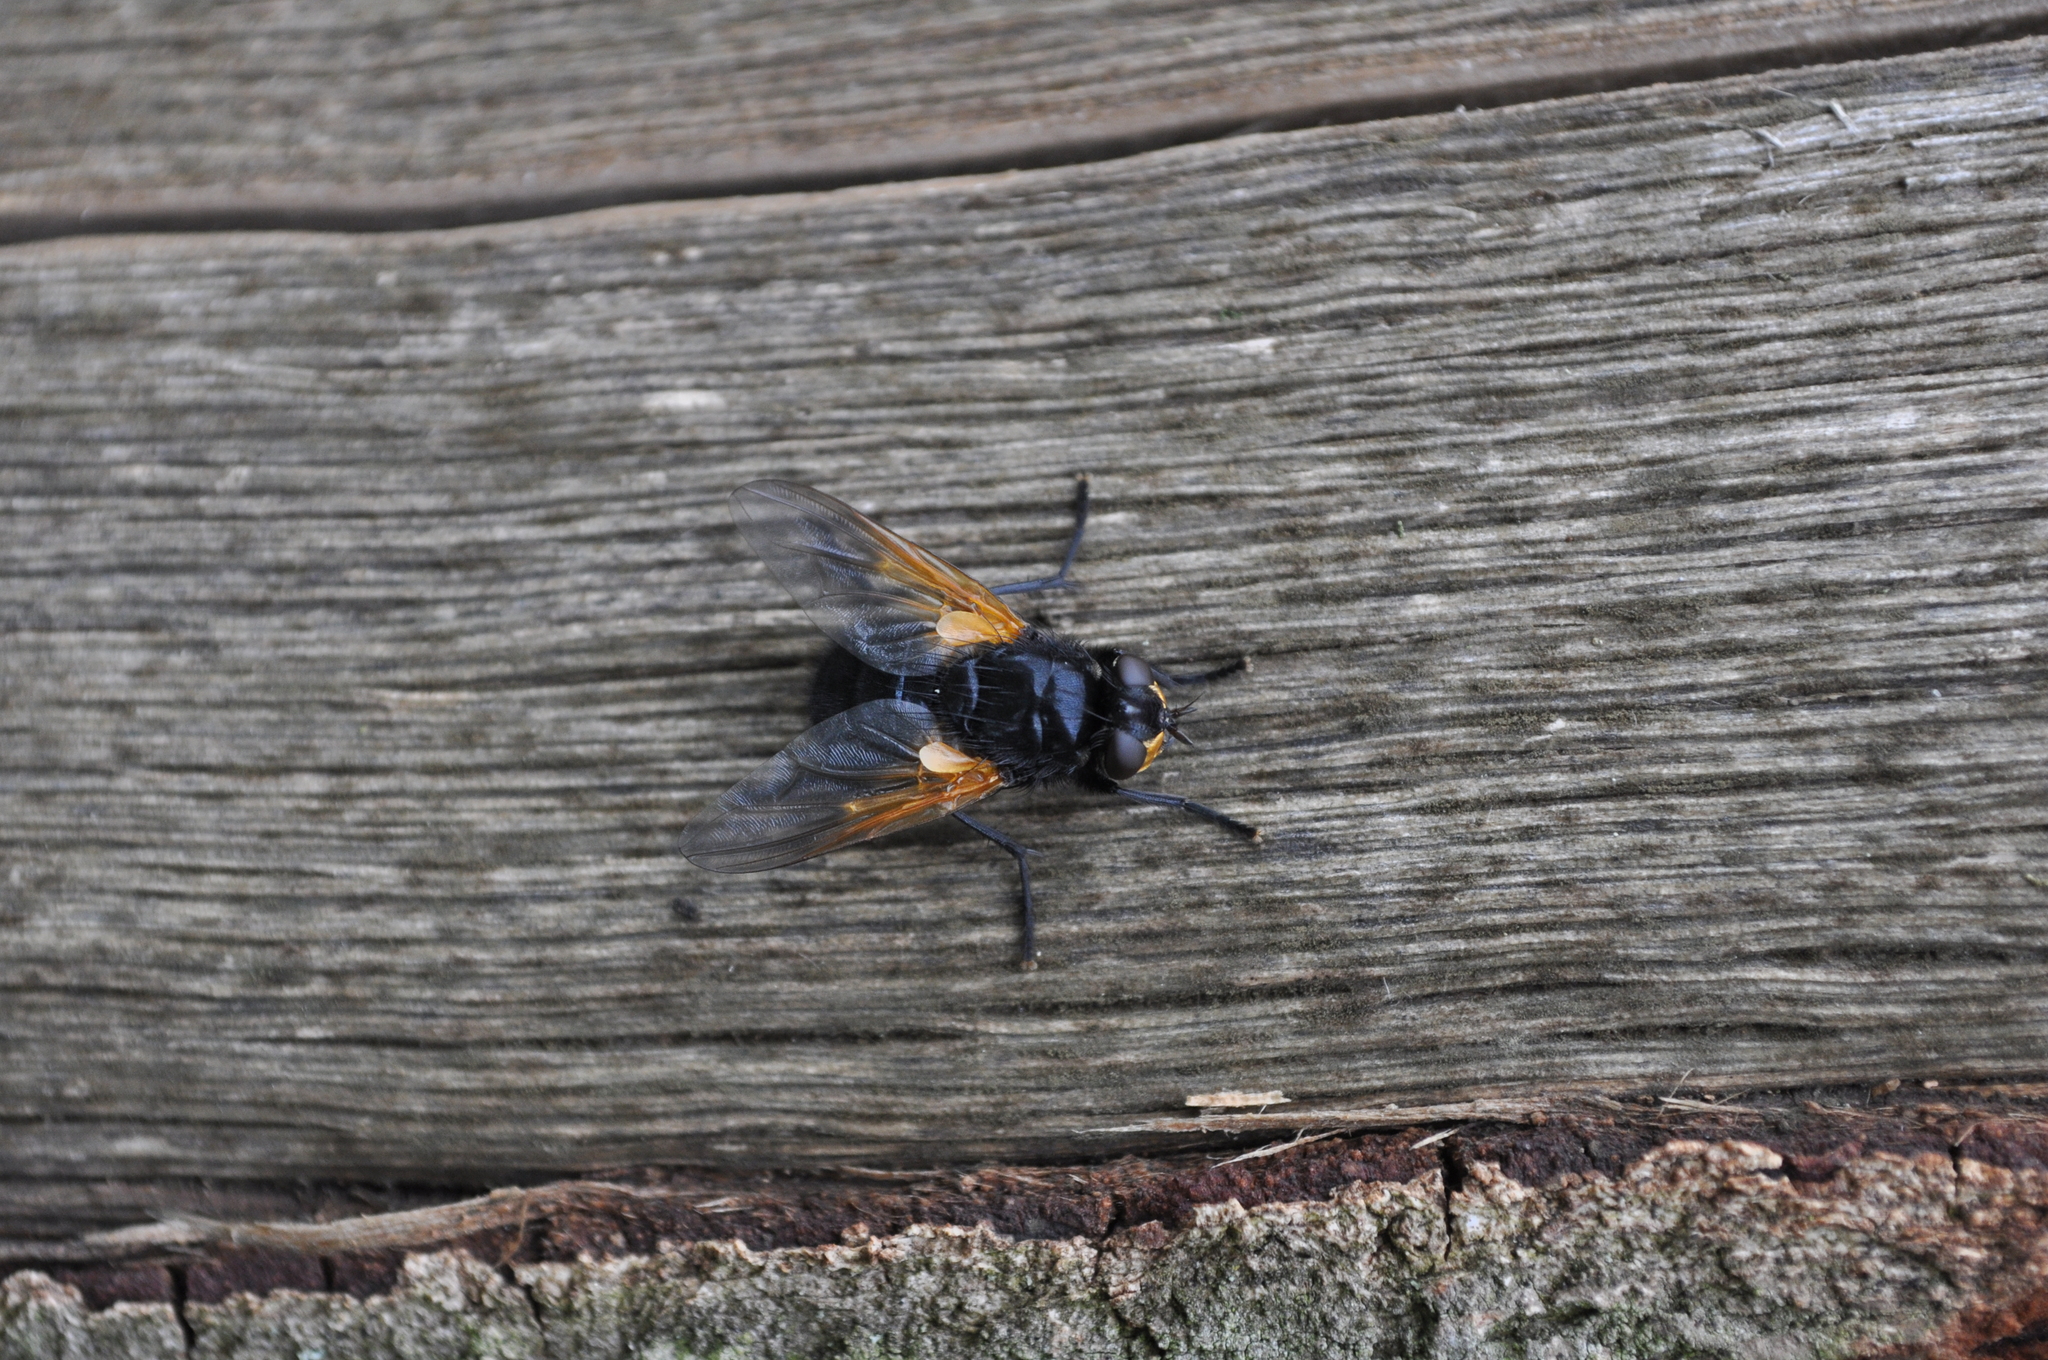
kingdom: Animalia
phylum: Arthropoda
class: Insecta
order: Diptera
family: Muscidae
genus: Mesembrina
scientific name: Mesembrina meridiana
